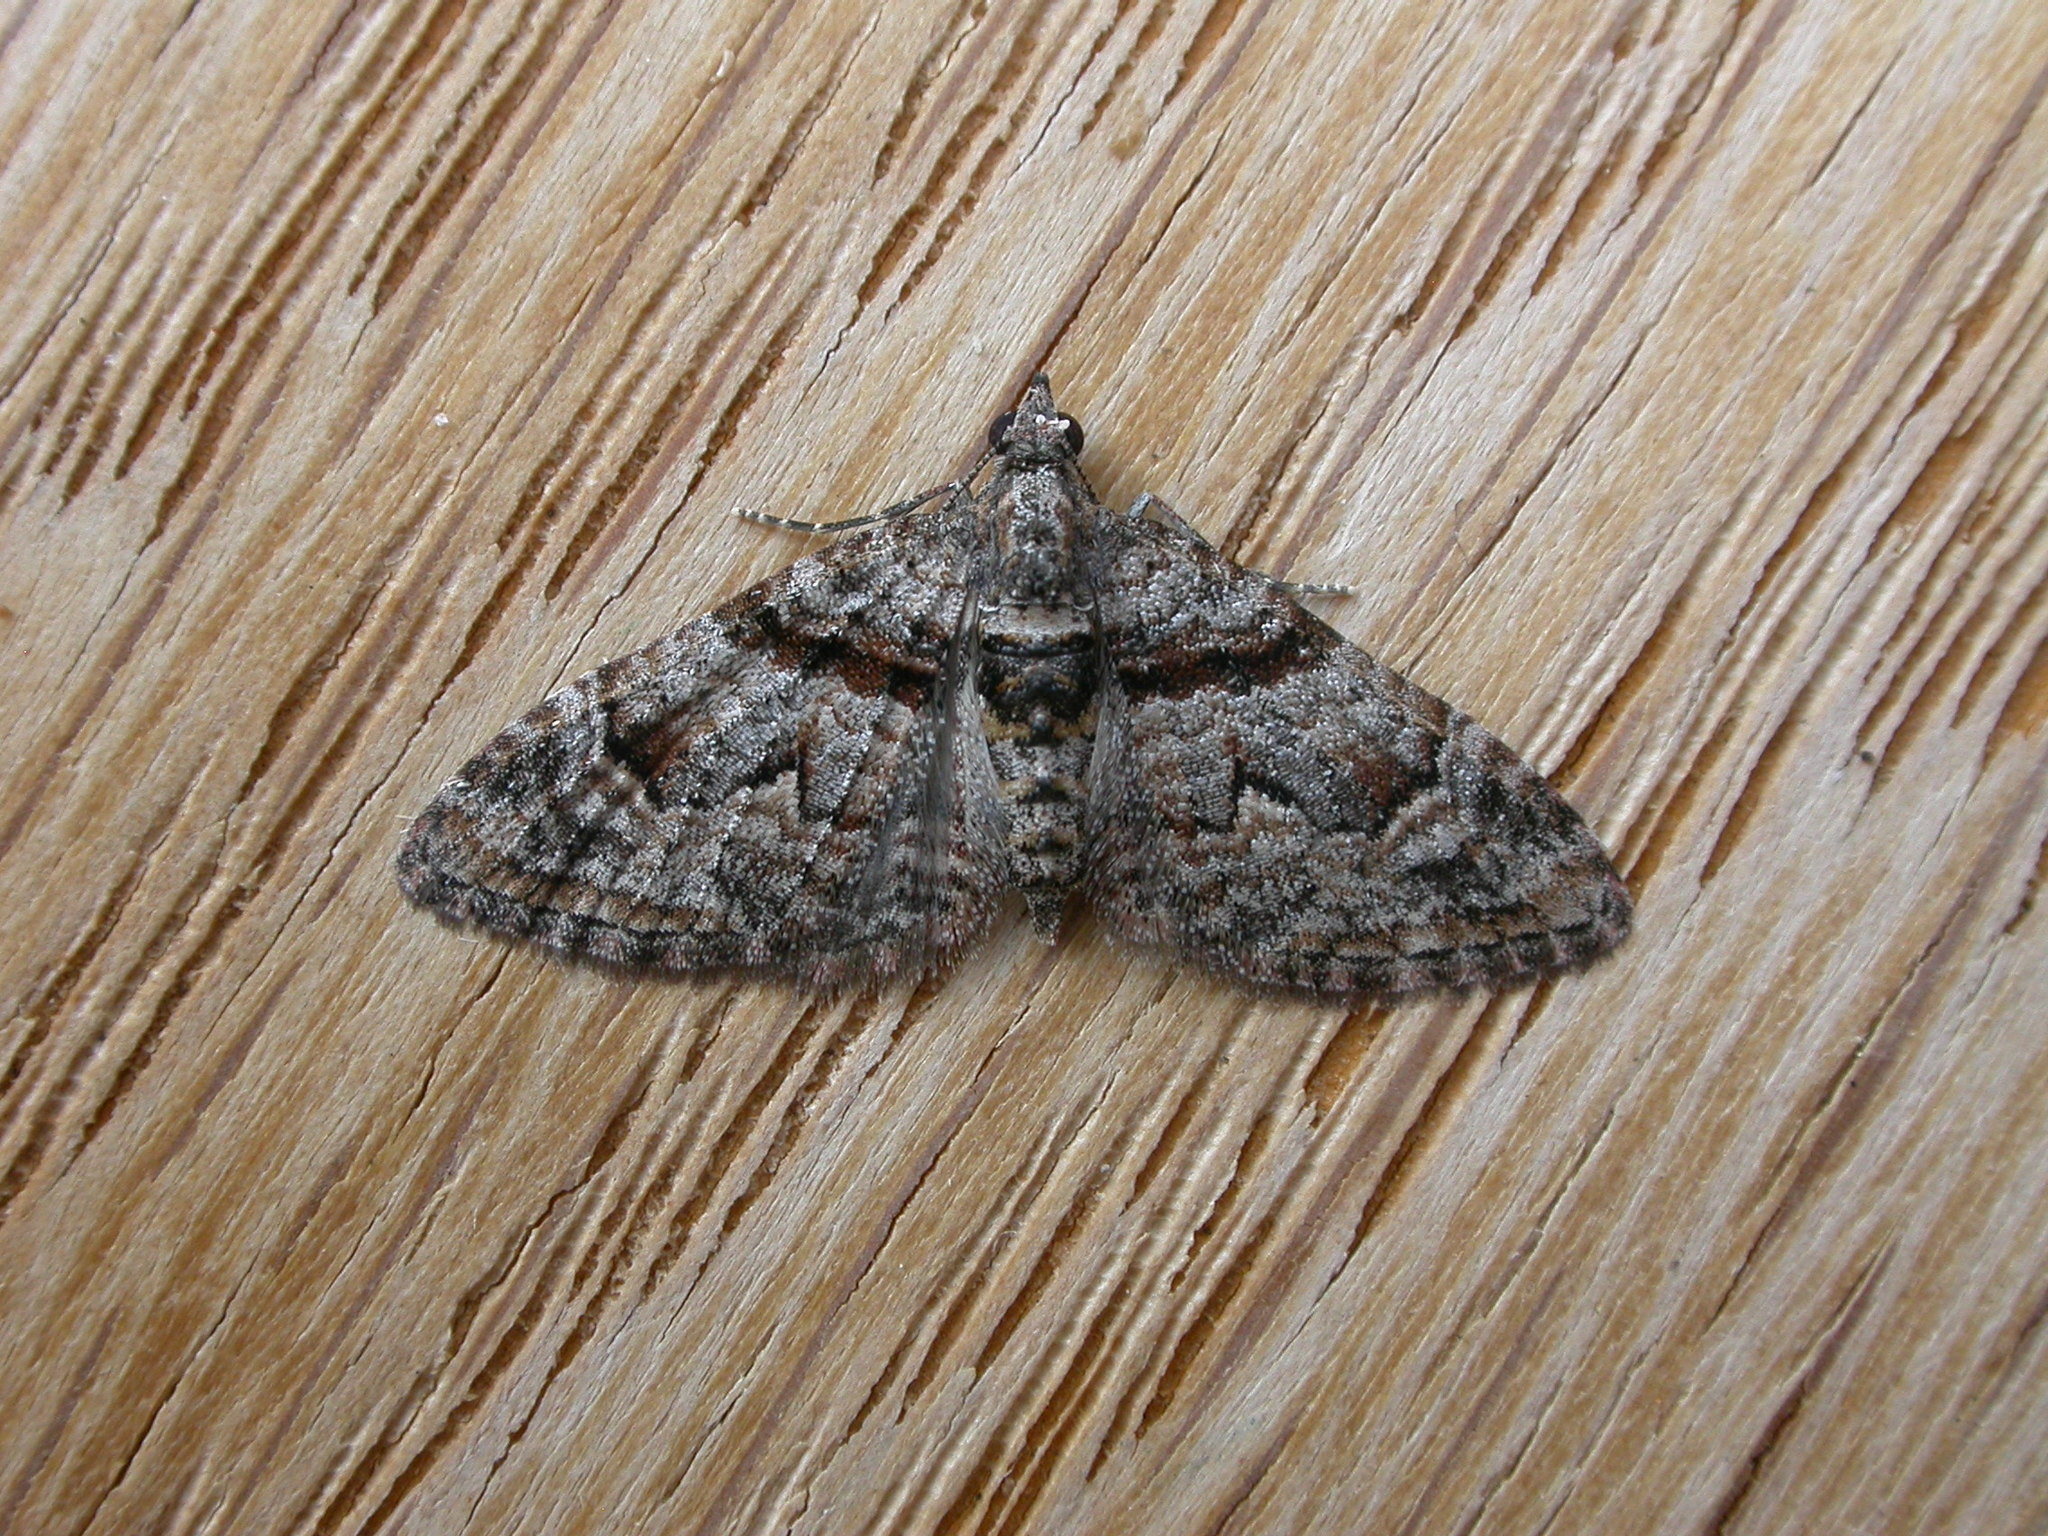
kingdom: Animalia
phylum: Arthropoda
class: Insecta
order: Lepidoptera
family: Geometridae
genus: Phrissogonus
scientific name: Phrissogonus laticostata
